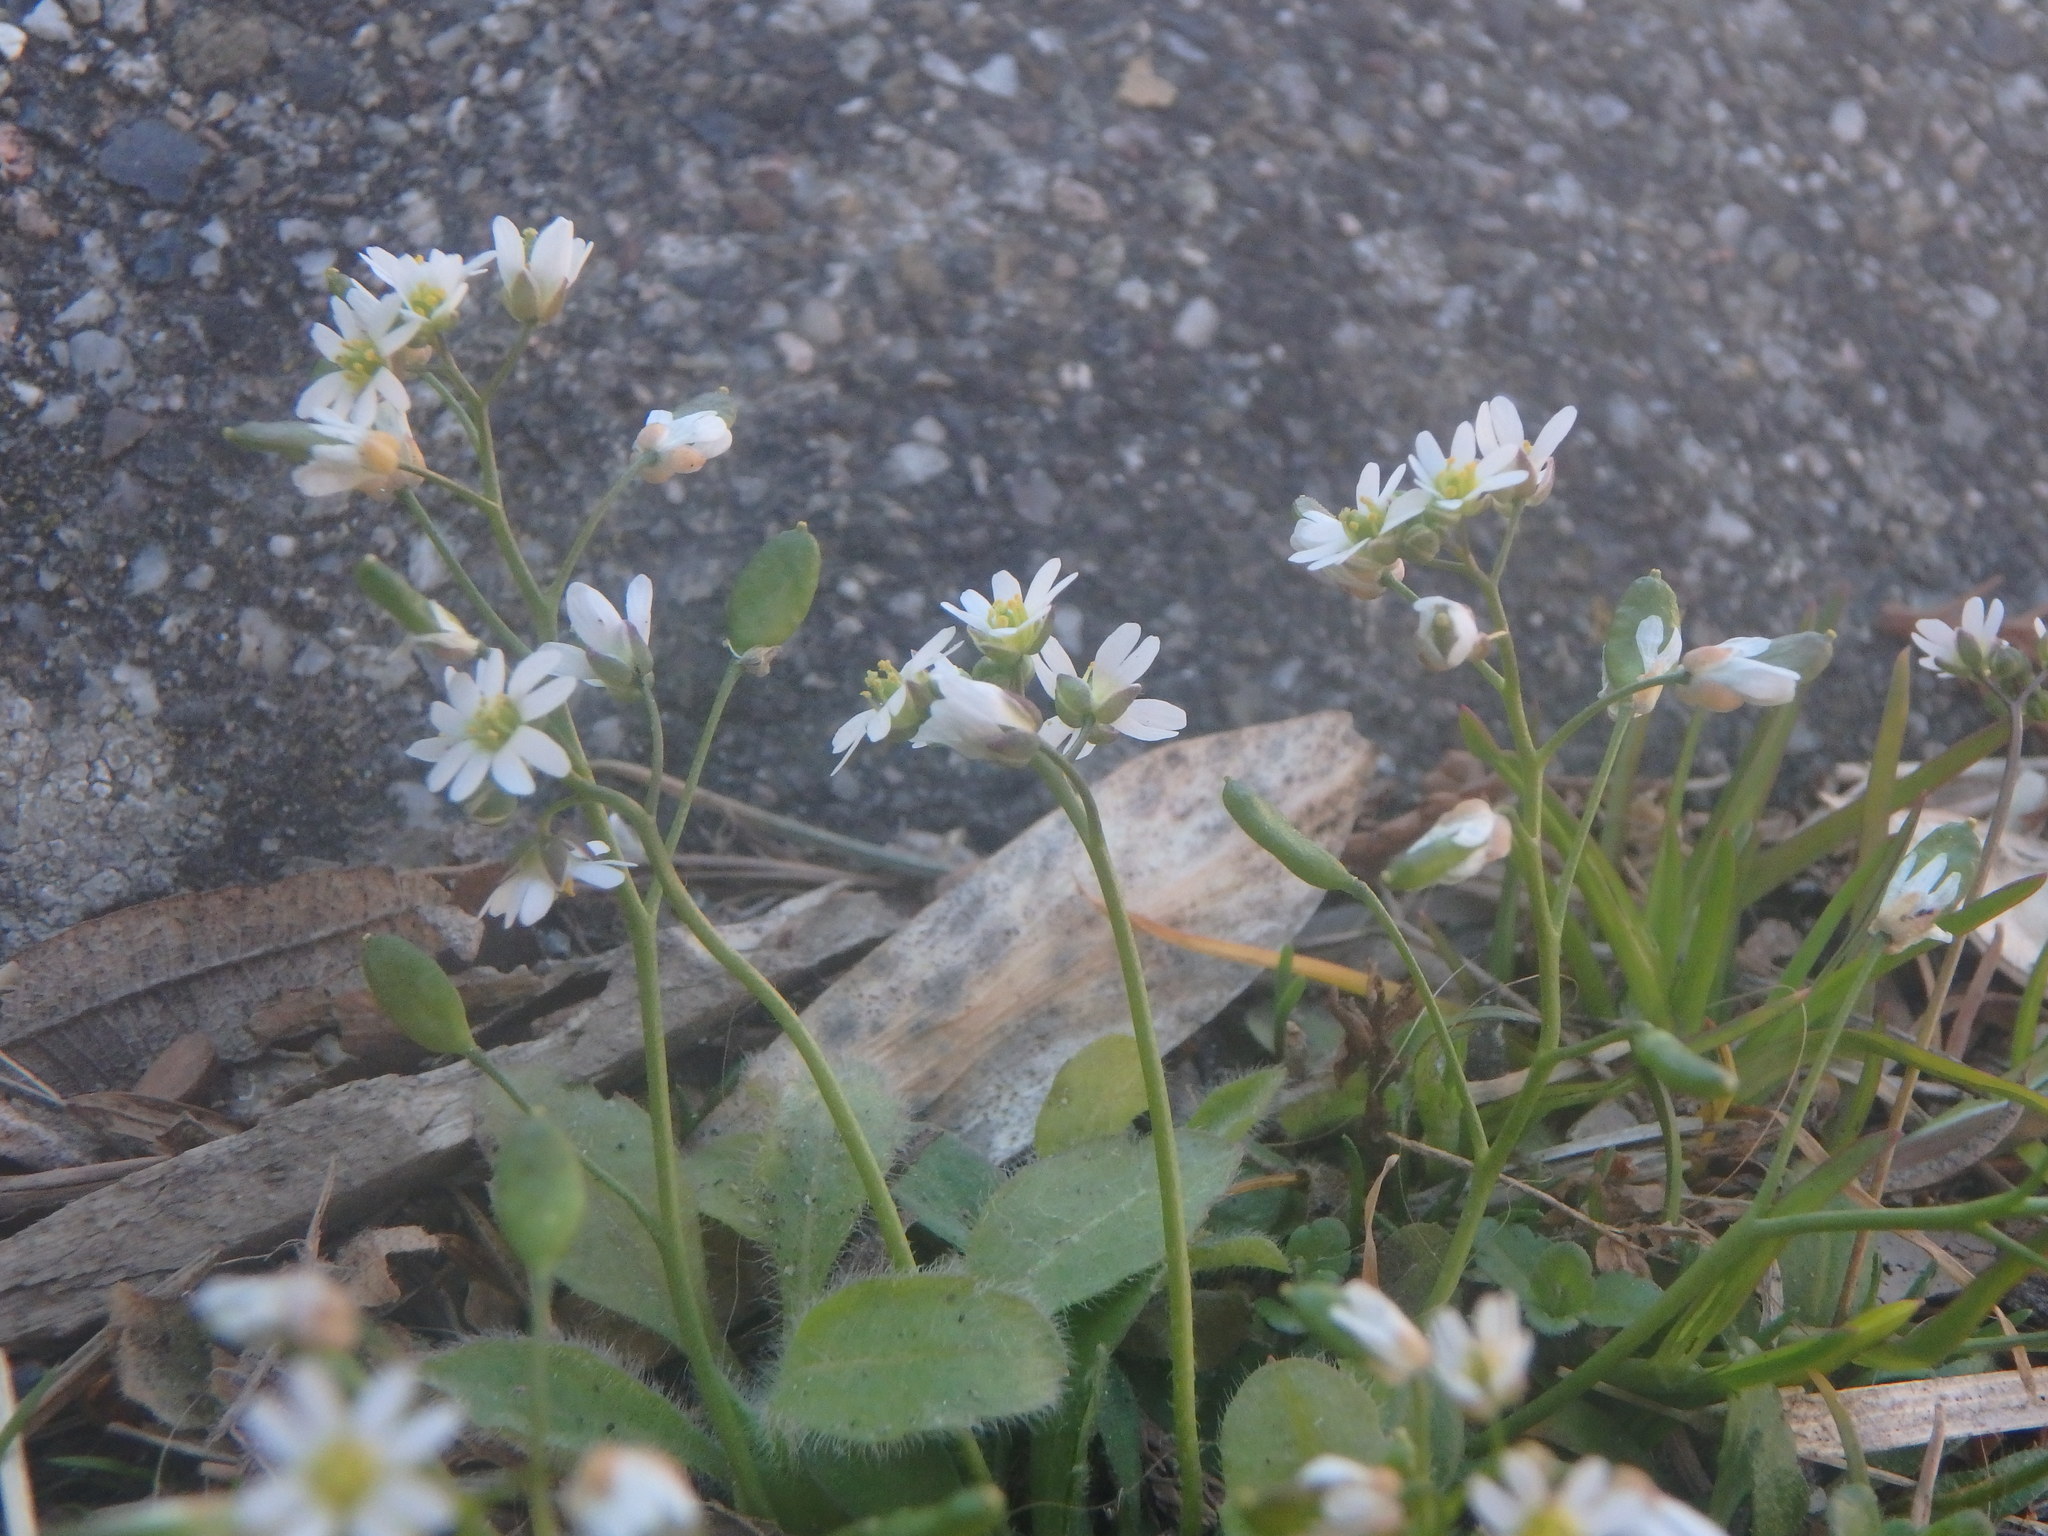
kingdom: Plantae
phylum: Tracheophyta
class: Magnoliopsida
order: Brassicales
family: Brassicaceae
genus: Draba
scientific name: Draba verna
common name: Spring draba
